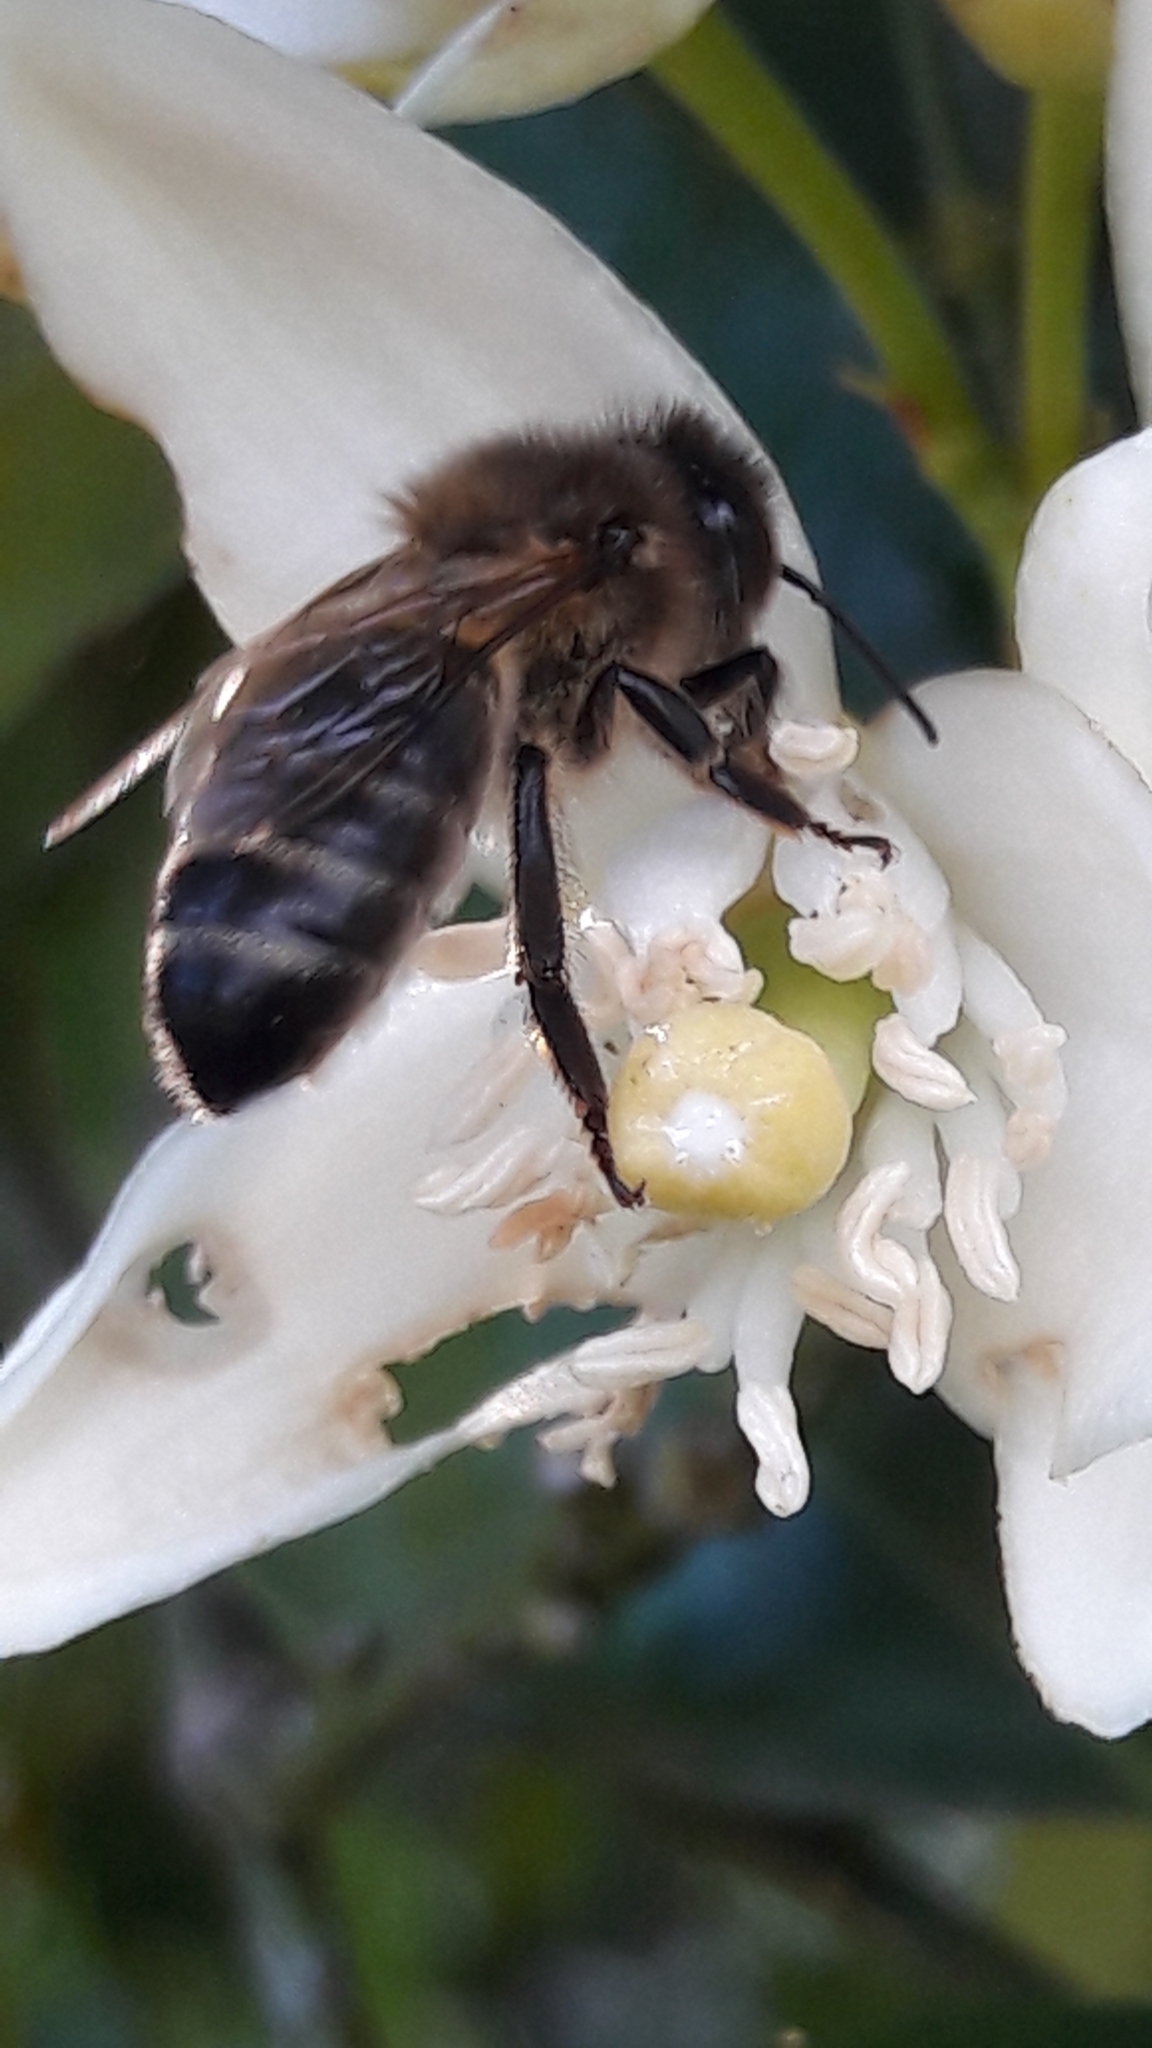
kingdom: Animalia
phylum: Arthropoda
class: Insecta
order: Hymenoptera
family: Apidae
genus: Apis
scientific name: Apis mellifera
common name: Honey bee
